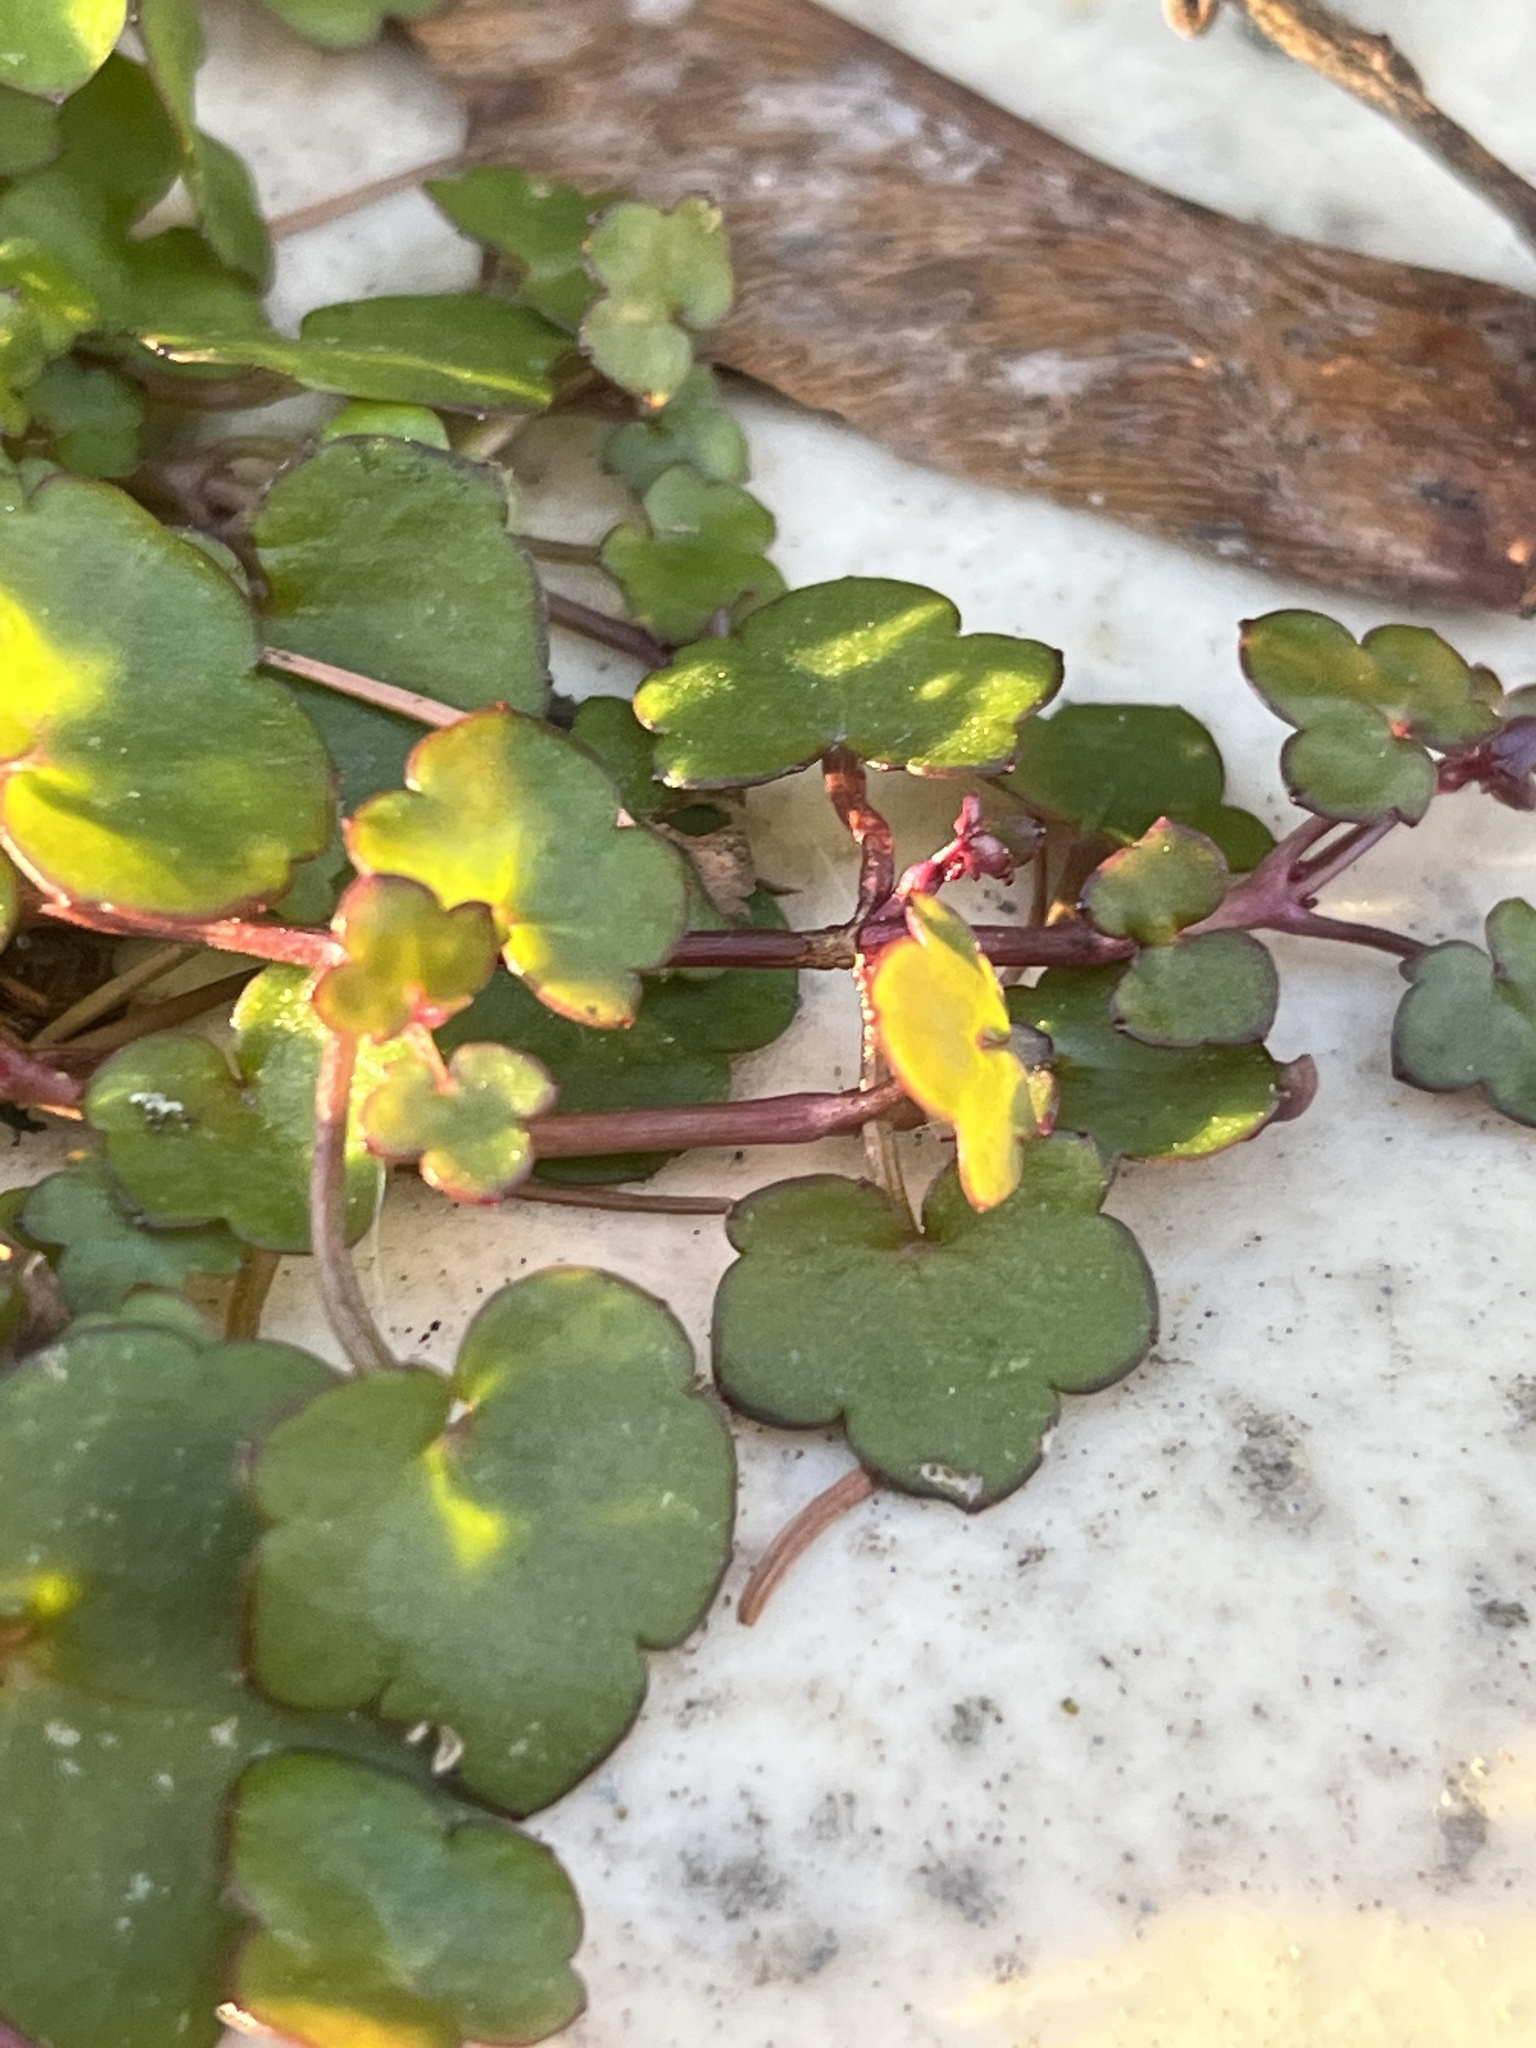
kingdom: Plantae
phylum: Tracheophyta
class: Magnoliopsida
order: Lamiales
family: Plantaginaceae
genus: Cymbalaria
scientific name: Cymbalaria muralis
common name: Ivy-leaved toadflax
